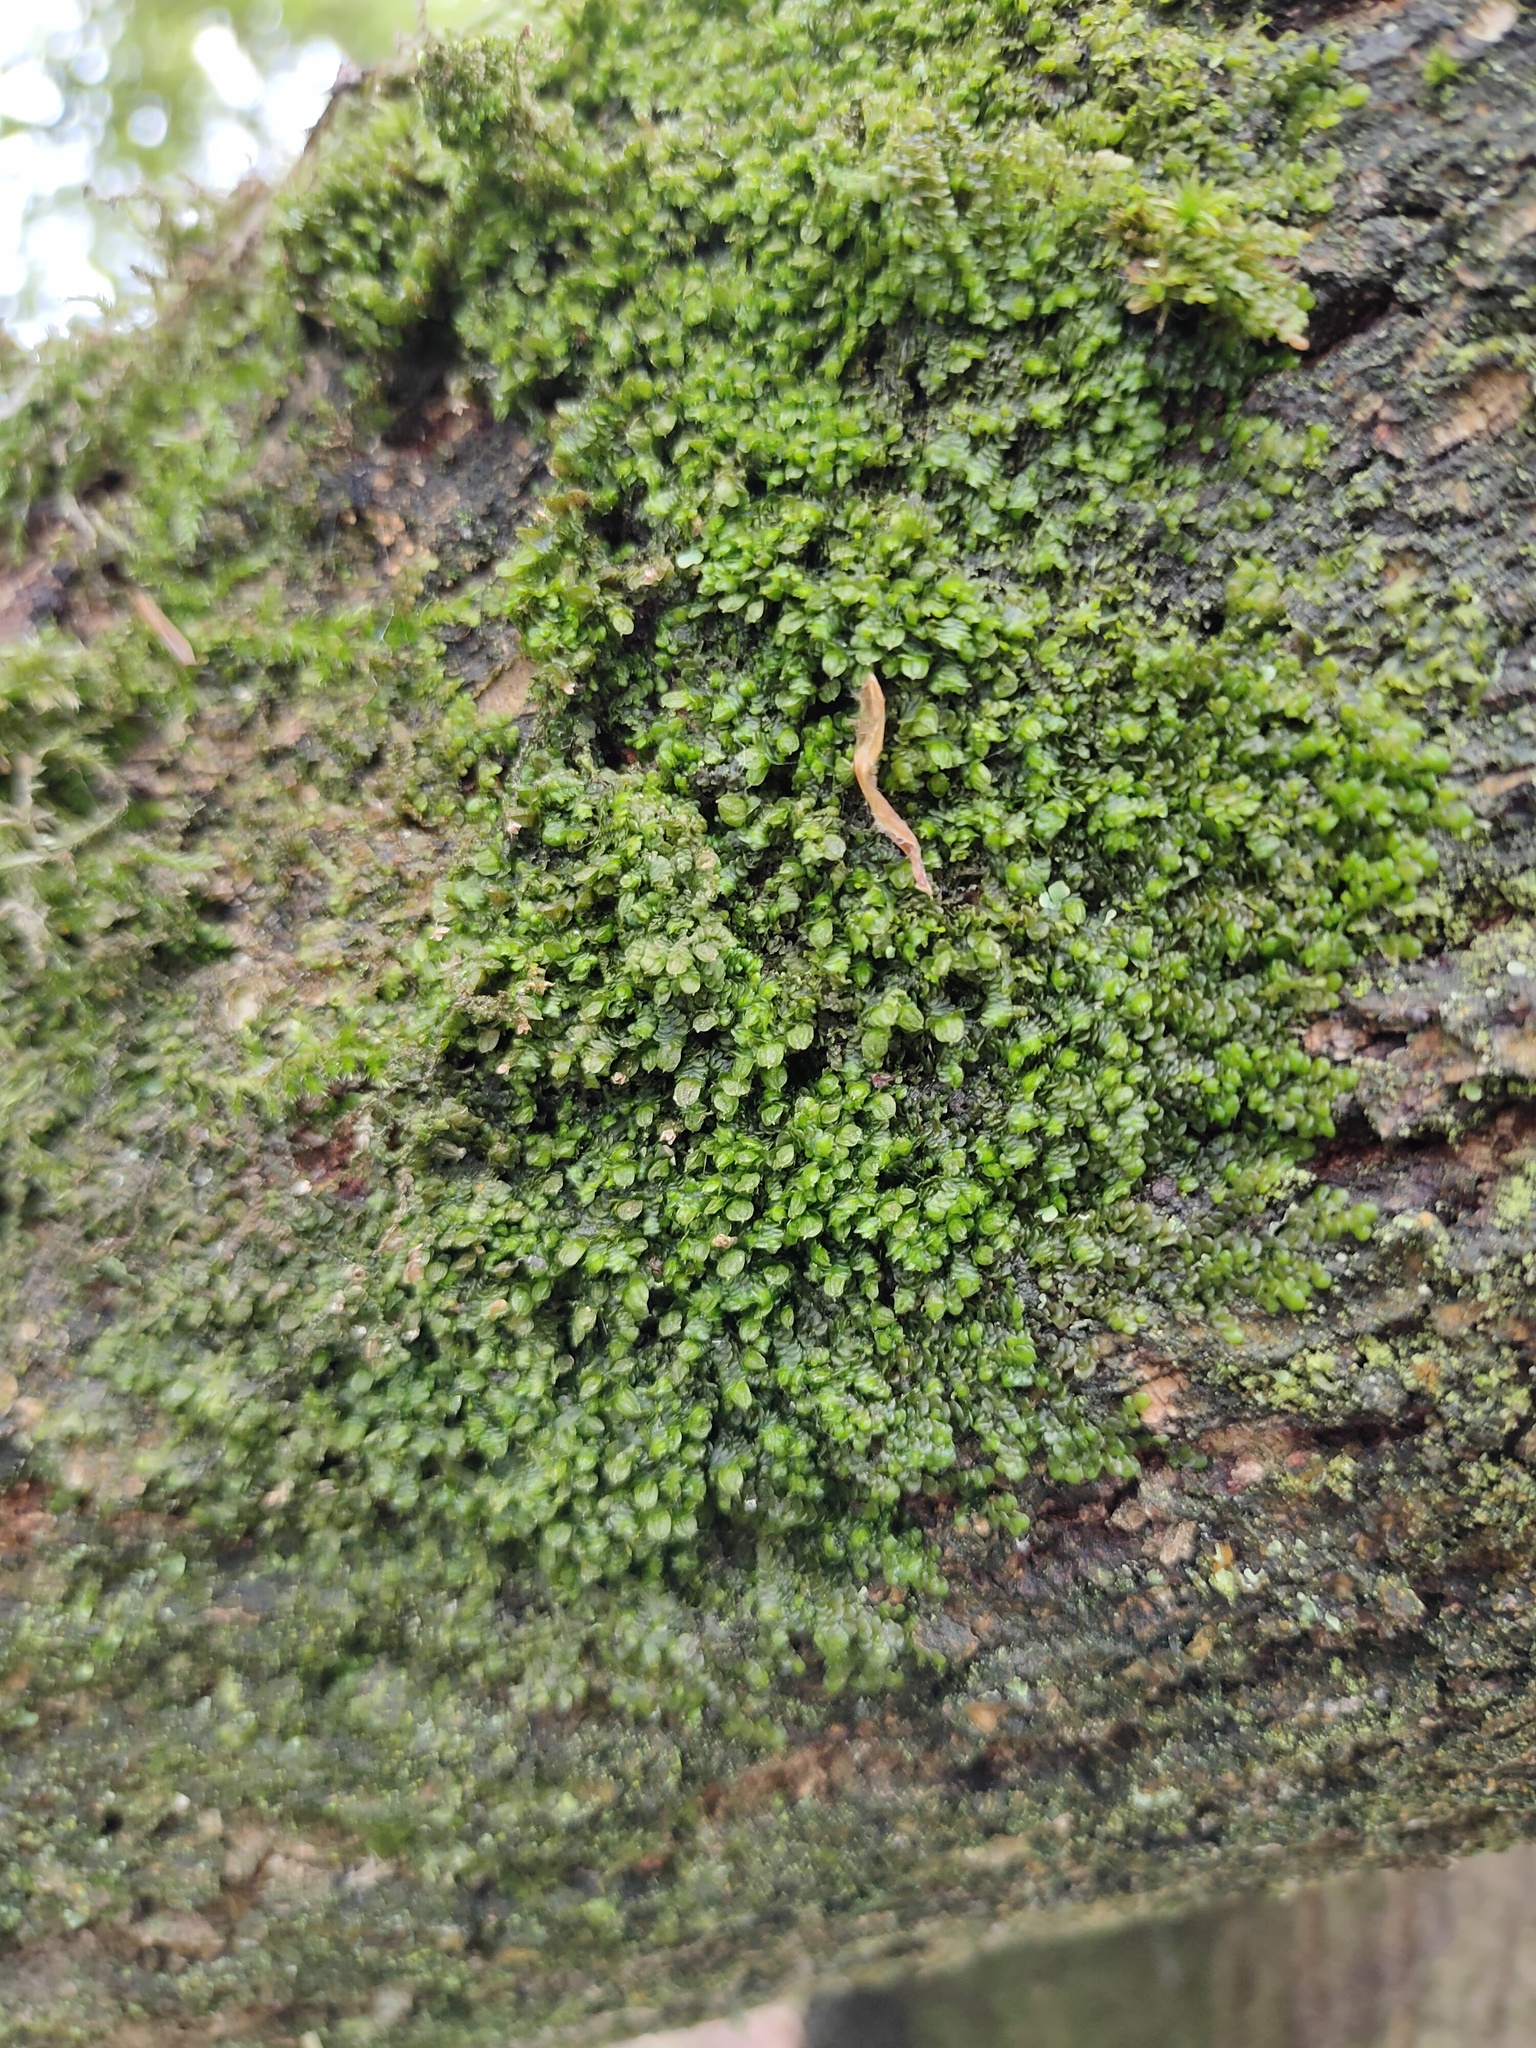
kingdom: Plantae
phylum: Marchantiophyta
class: Jungermanniopsida
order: Porellales
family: Frullaniaceae
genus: Frullania
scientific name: Frullania dilatata
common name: Dilated scalewort
